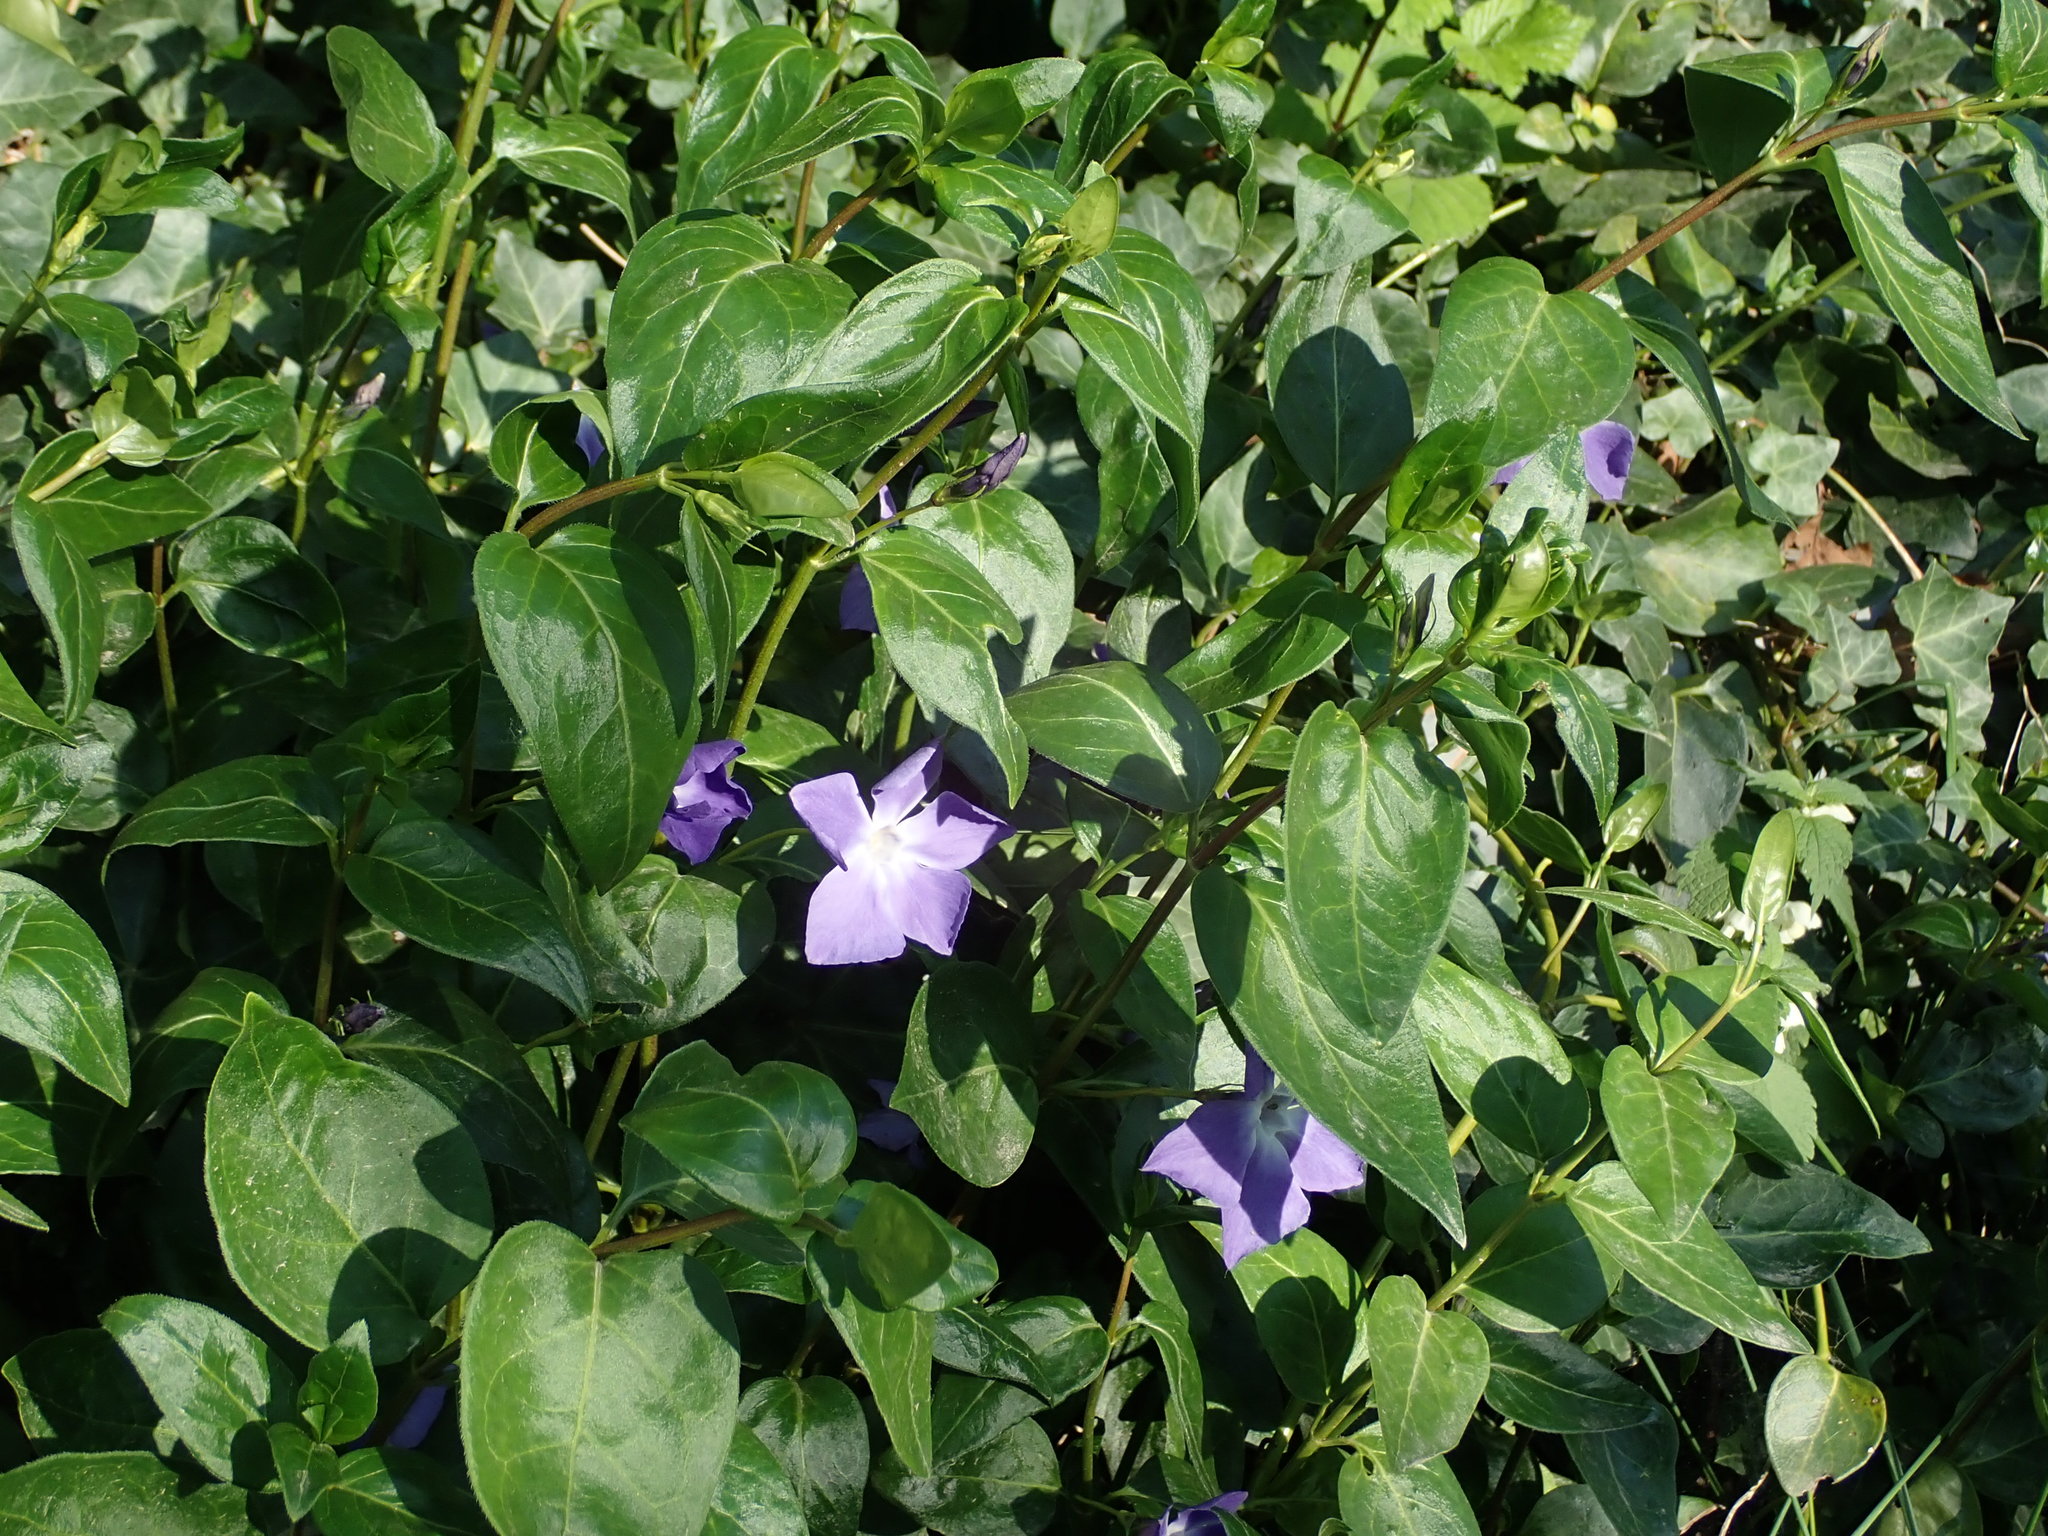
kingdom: Plantae
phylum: Tracheophyta
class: Magnoliopsida
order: Gentianales
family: Apocynaceae
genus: Vinca
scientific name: Vinca major
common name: Greater periwinkle
